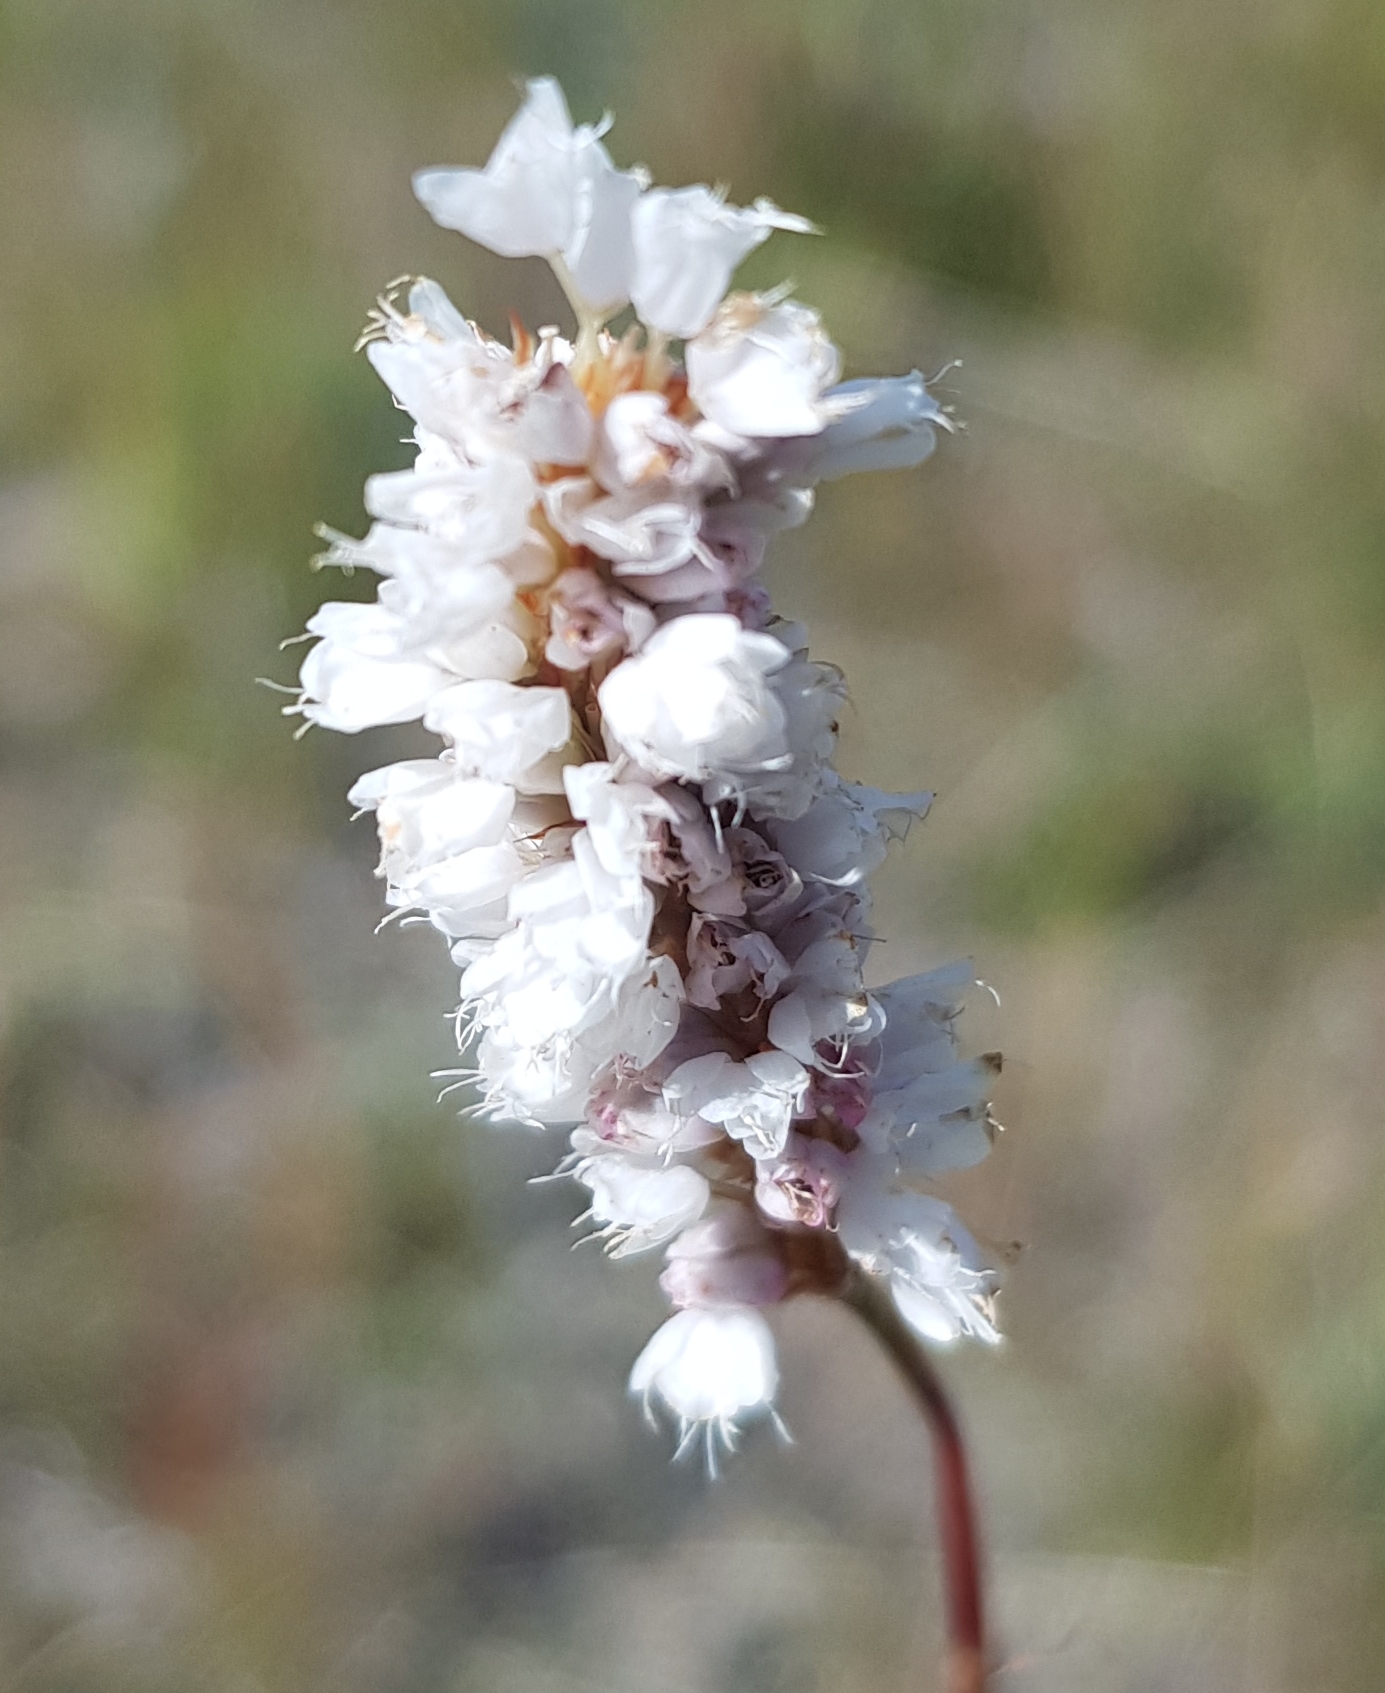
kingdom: Plantae
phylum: Tracheophyta
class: Magnoliopsida
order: Caryophyllales
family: Polygonaceae
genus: Bistorta
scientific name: Bistorta vivipara
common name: Alpine bistort
